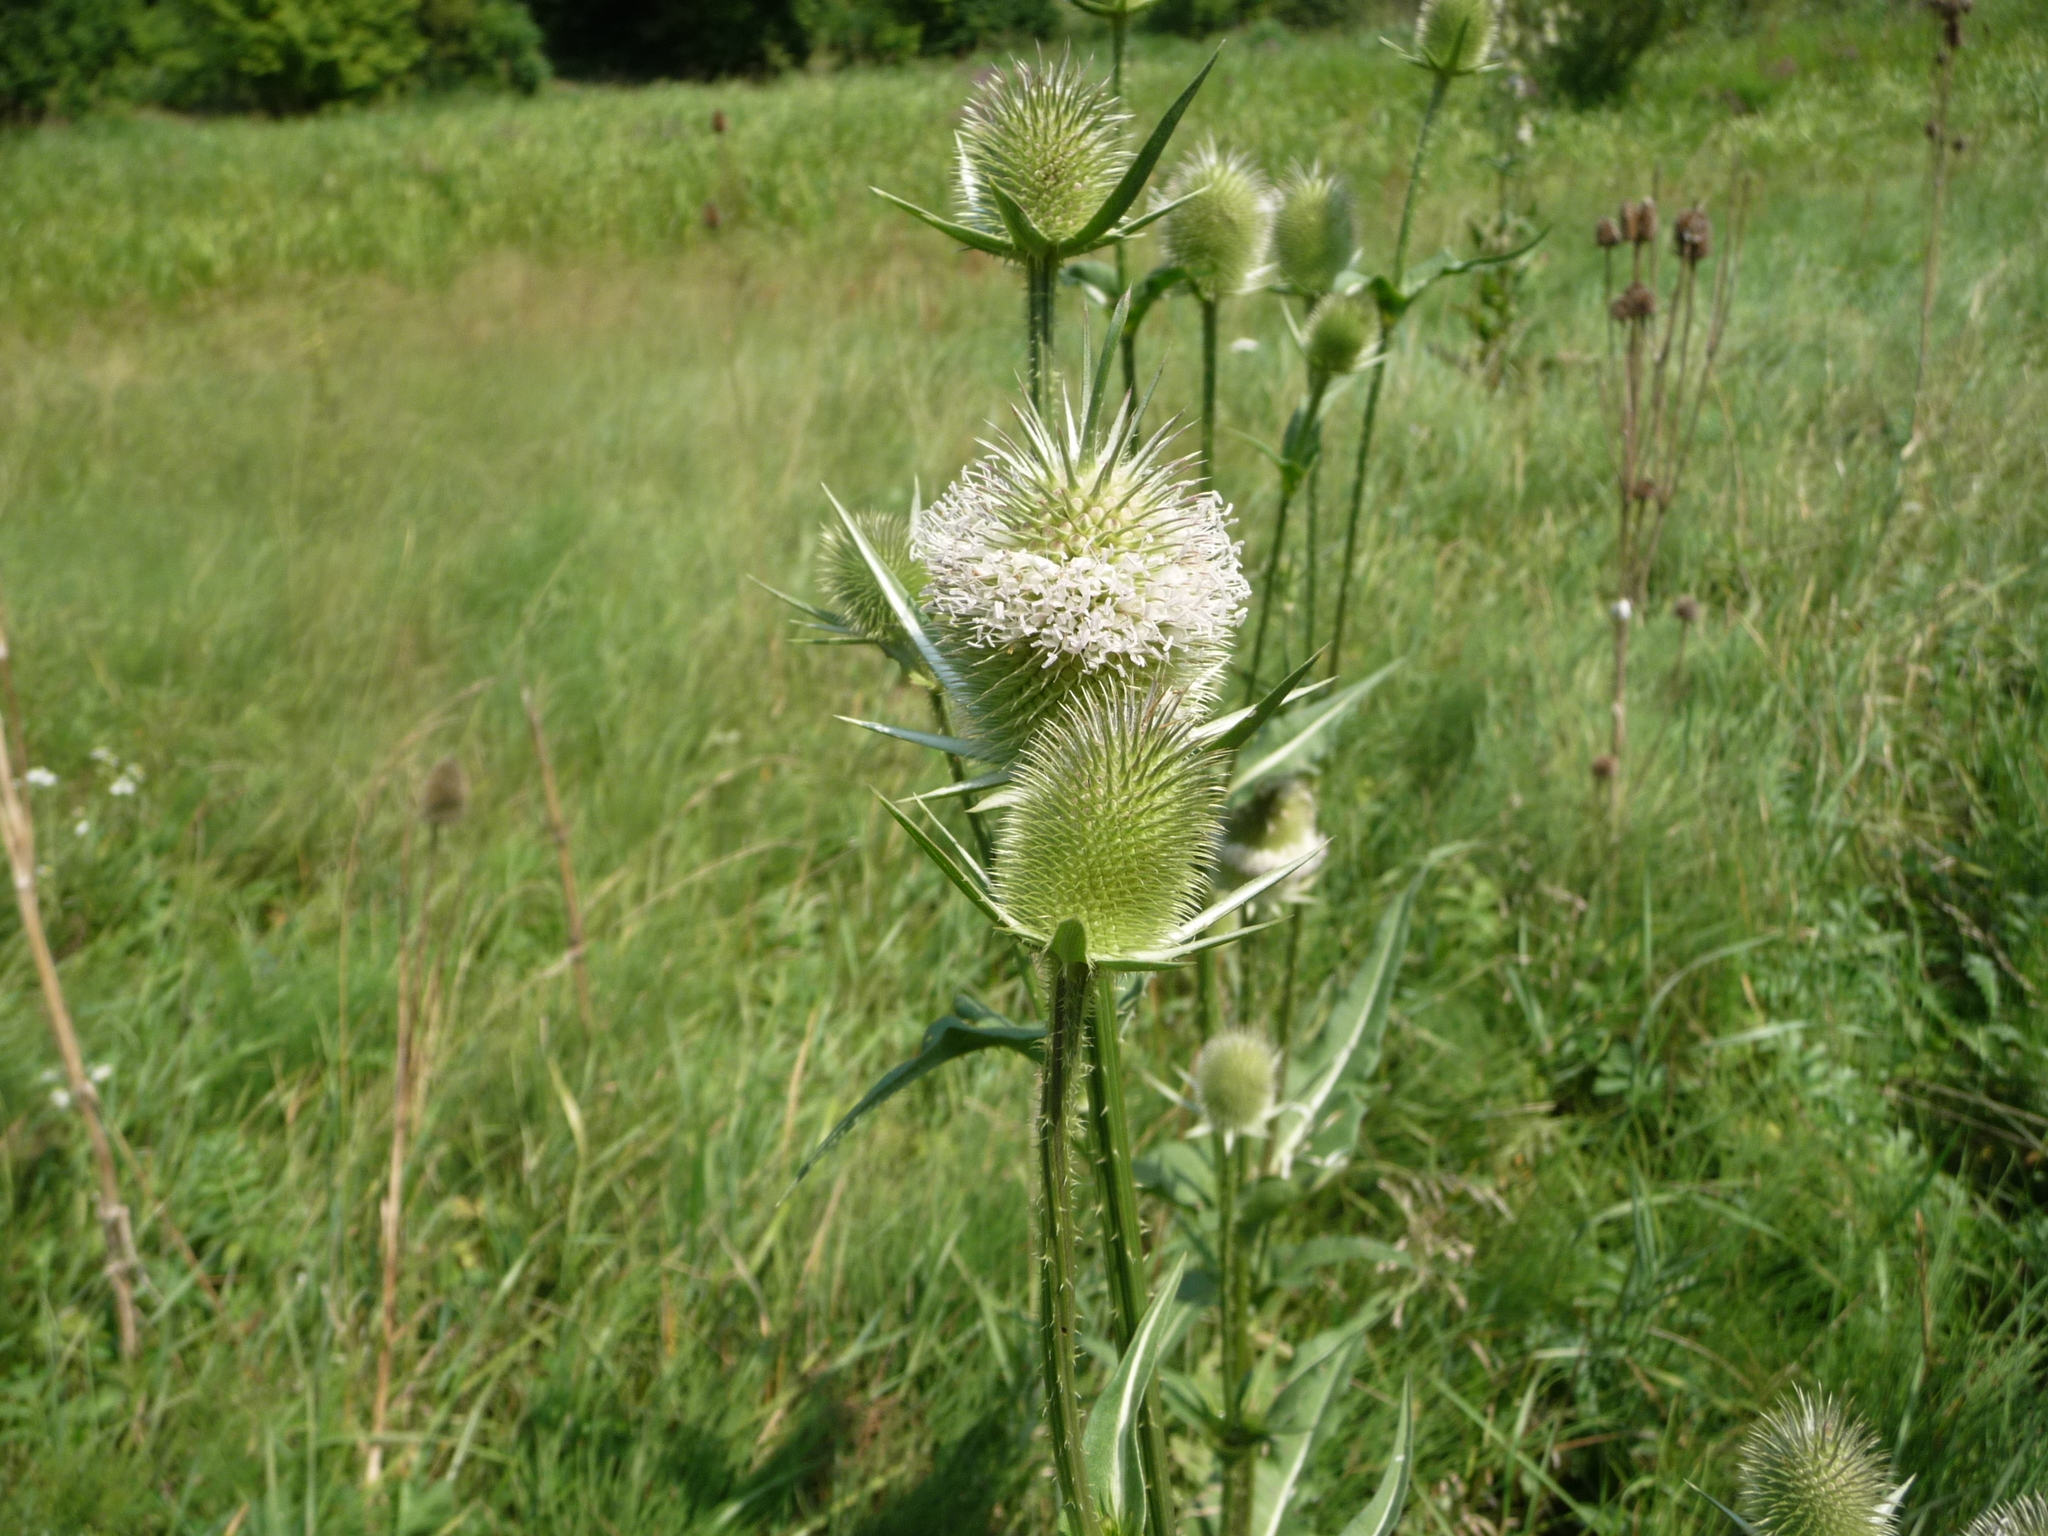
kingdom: Plantae
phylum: Tracheophyta
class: Magnoliopsida
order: Dipsacales
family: Caprifoliaceae
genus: Dipsacus
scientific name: Dipsacus laciniatus
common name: Cut-leaved teasel
